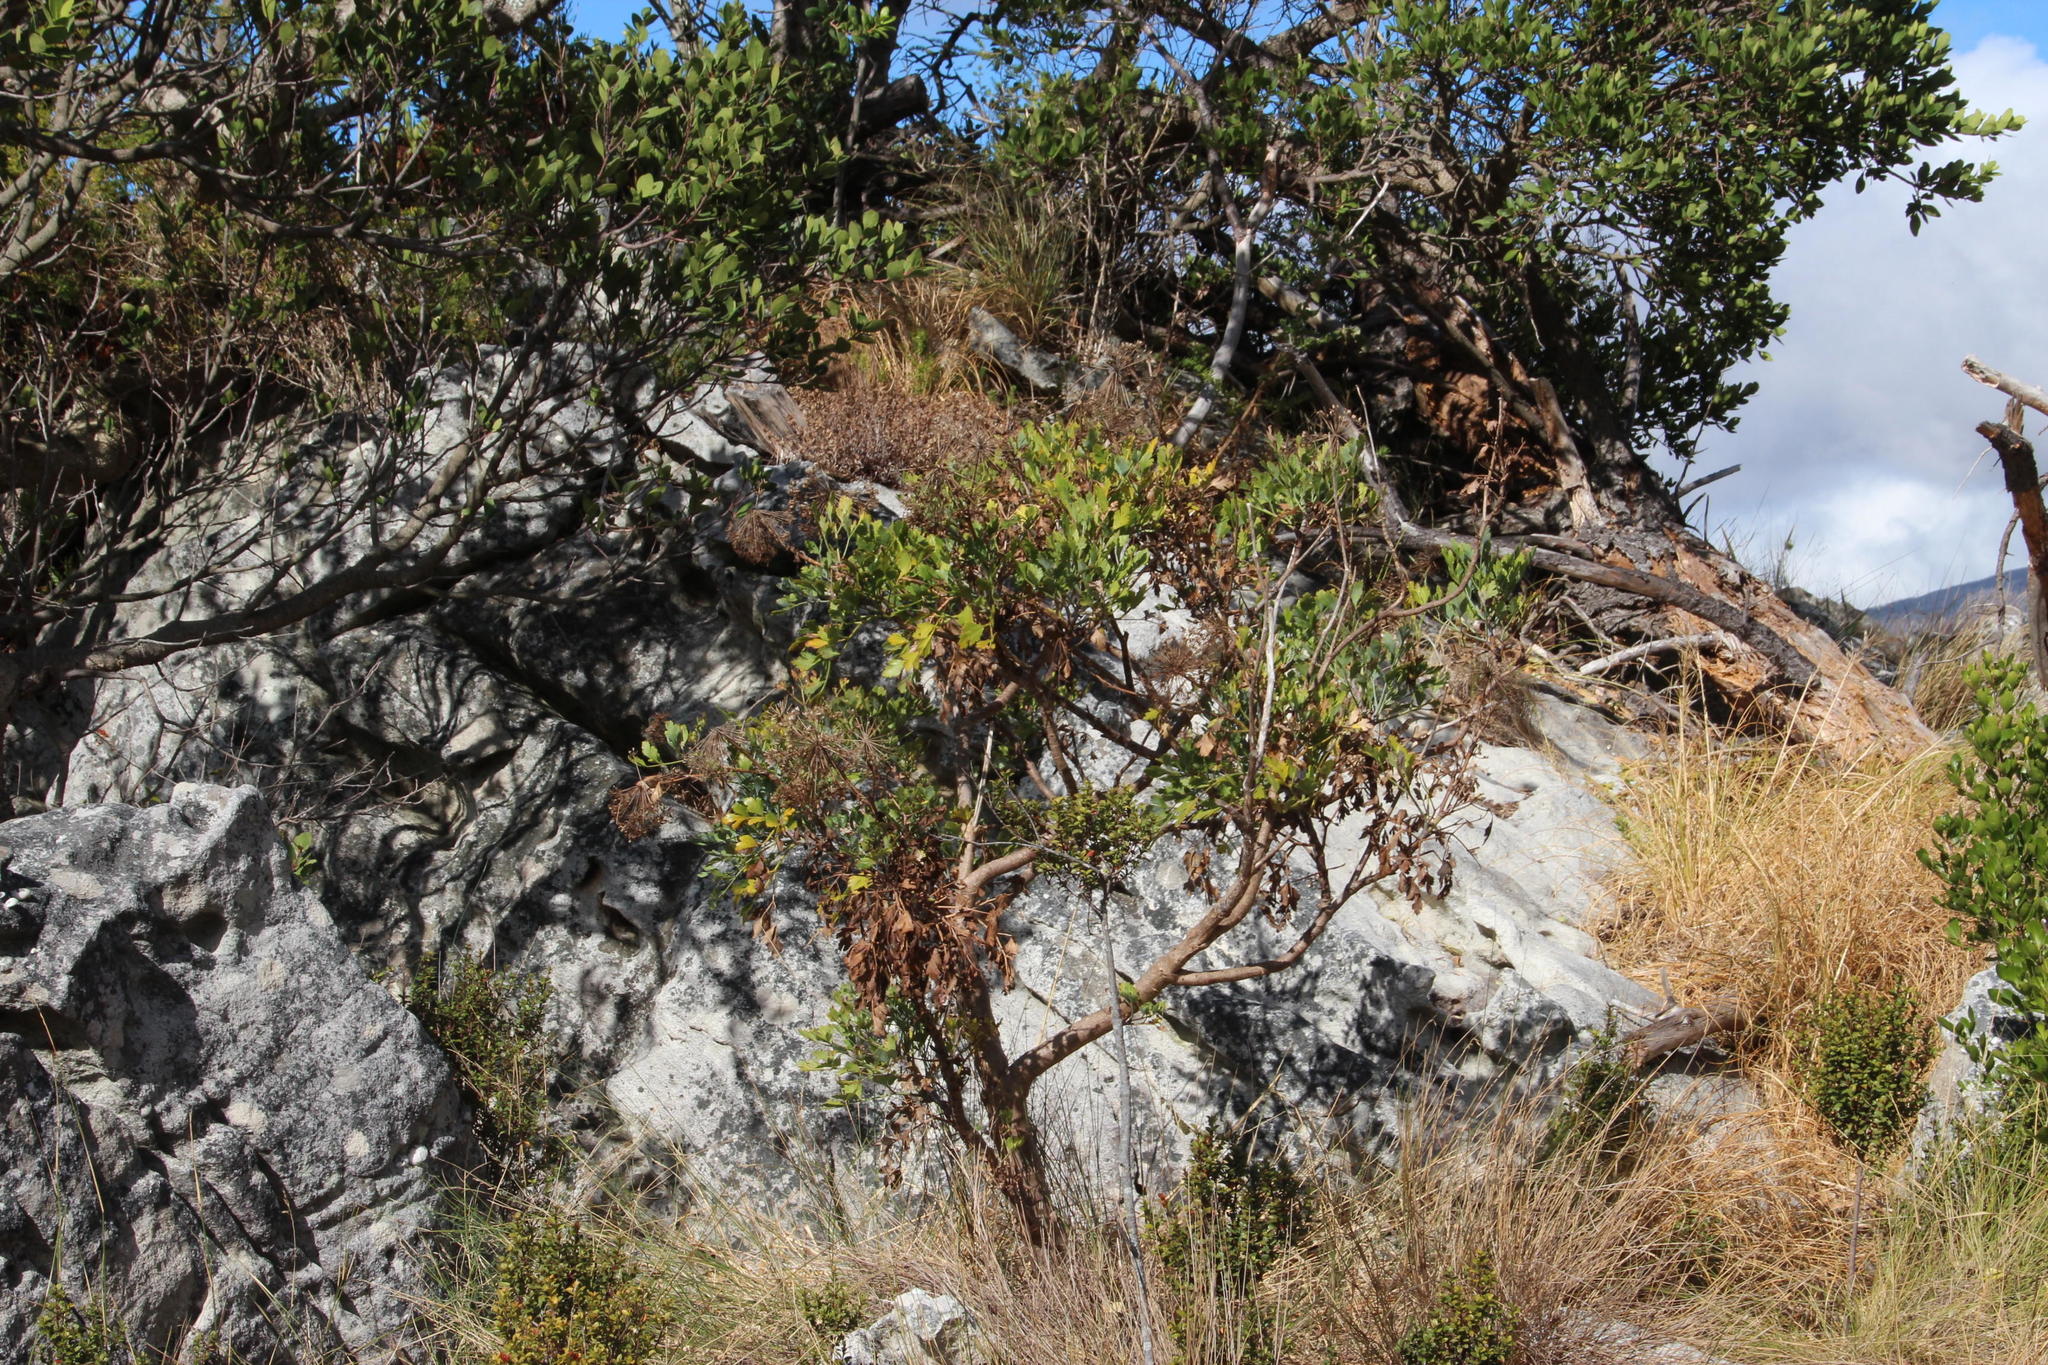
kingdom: Plantae
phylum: Tracheophyta
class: Magnoliopsida
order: Apiales
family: Apiaceae
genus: Notobubon
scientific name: Notobubon galbanum
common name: Blisterbush
